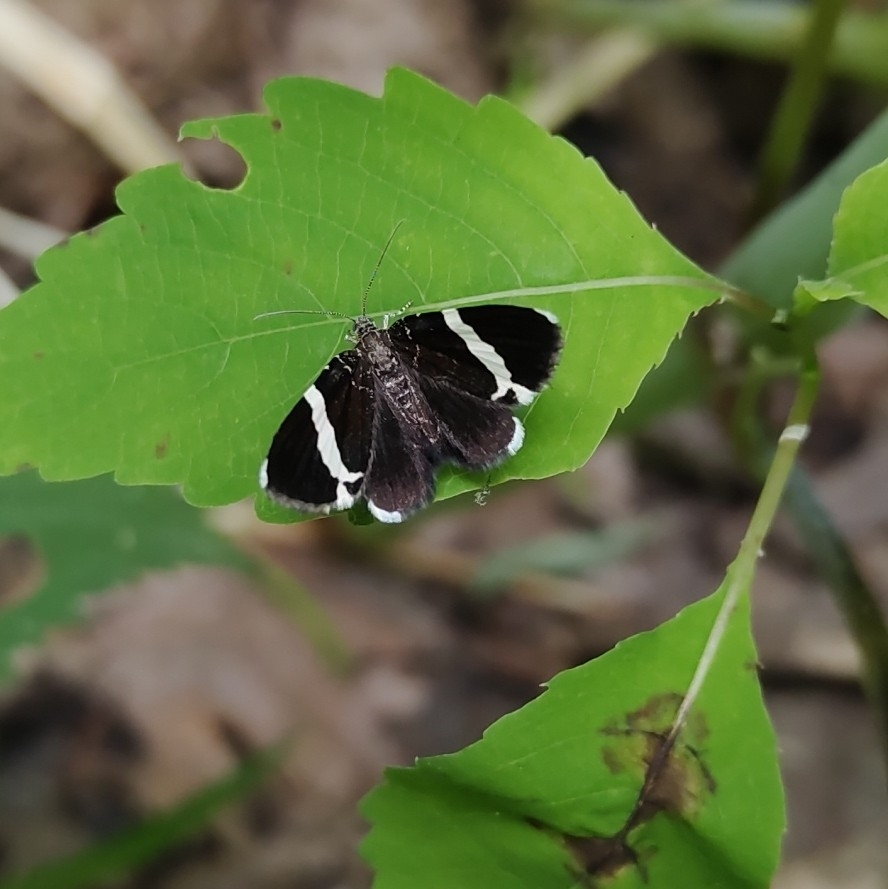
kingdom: Animalia
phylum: Arthropoda
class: Insecta
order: Lepidoptera
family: Geometridae
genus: Trichodezia
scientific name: Trichodezia albovittata
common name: White striped black
